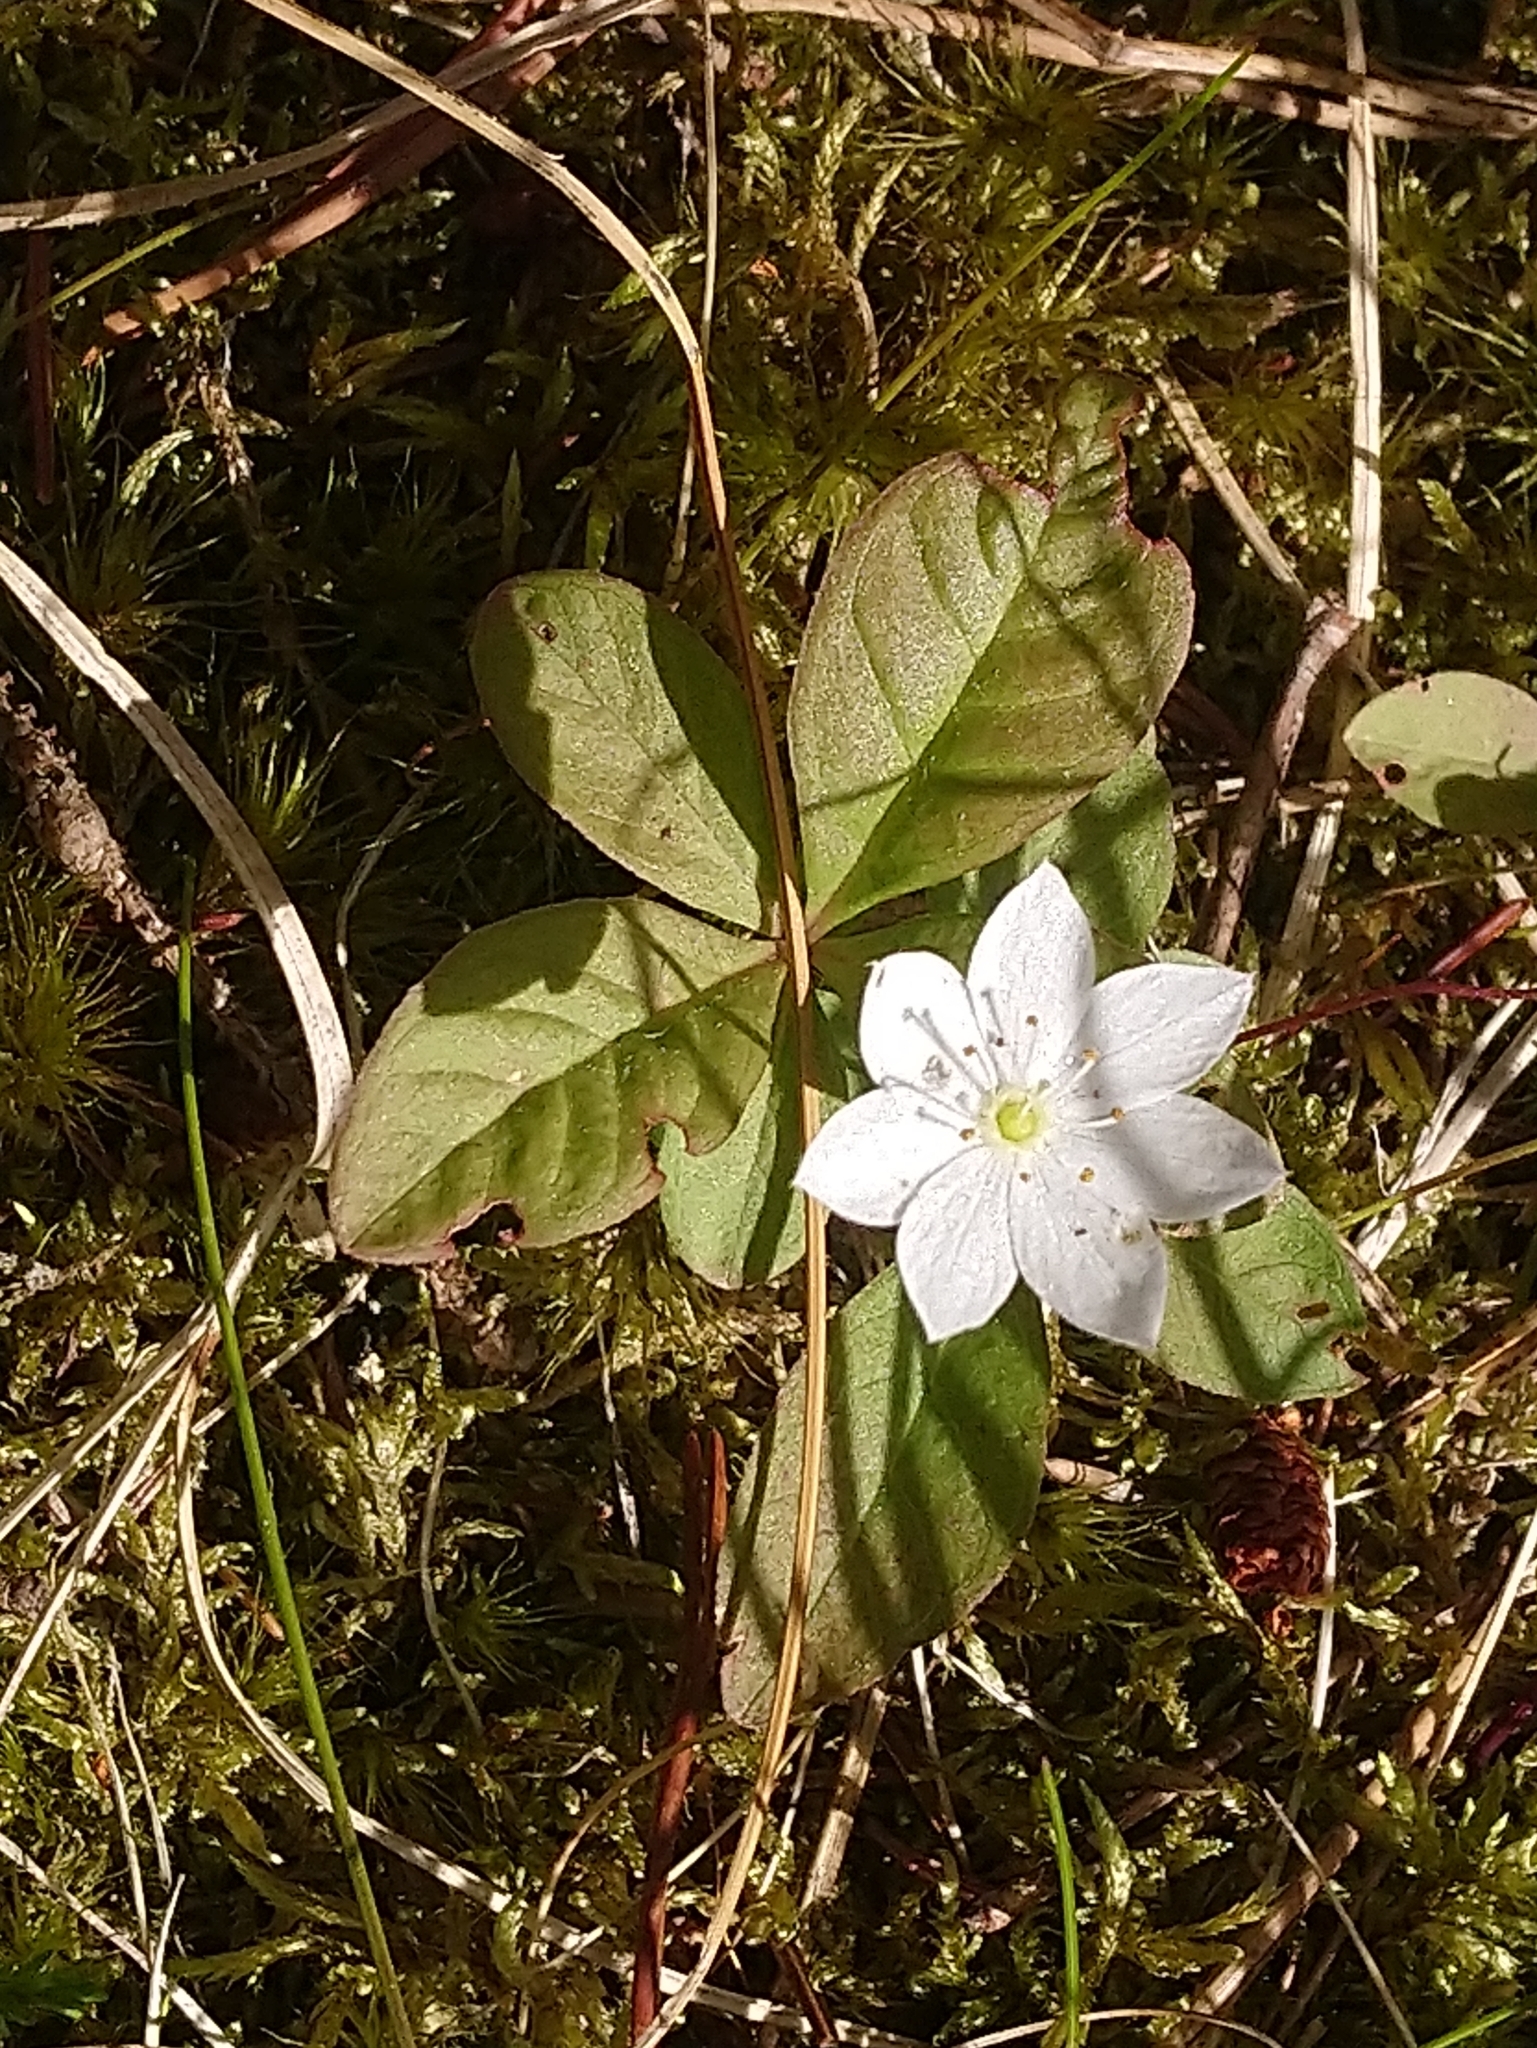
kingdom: Plantae
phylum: Tracheophyta
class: Magnoliopsida
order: Ericales
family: Primulaceae
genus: Lysimachia
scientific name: Lysimachia europaea
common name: Arctic starflower
